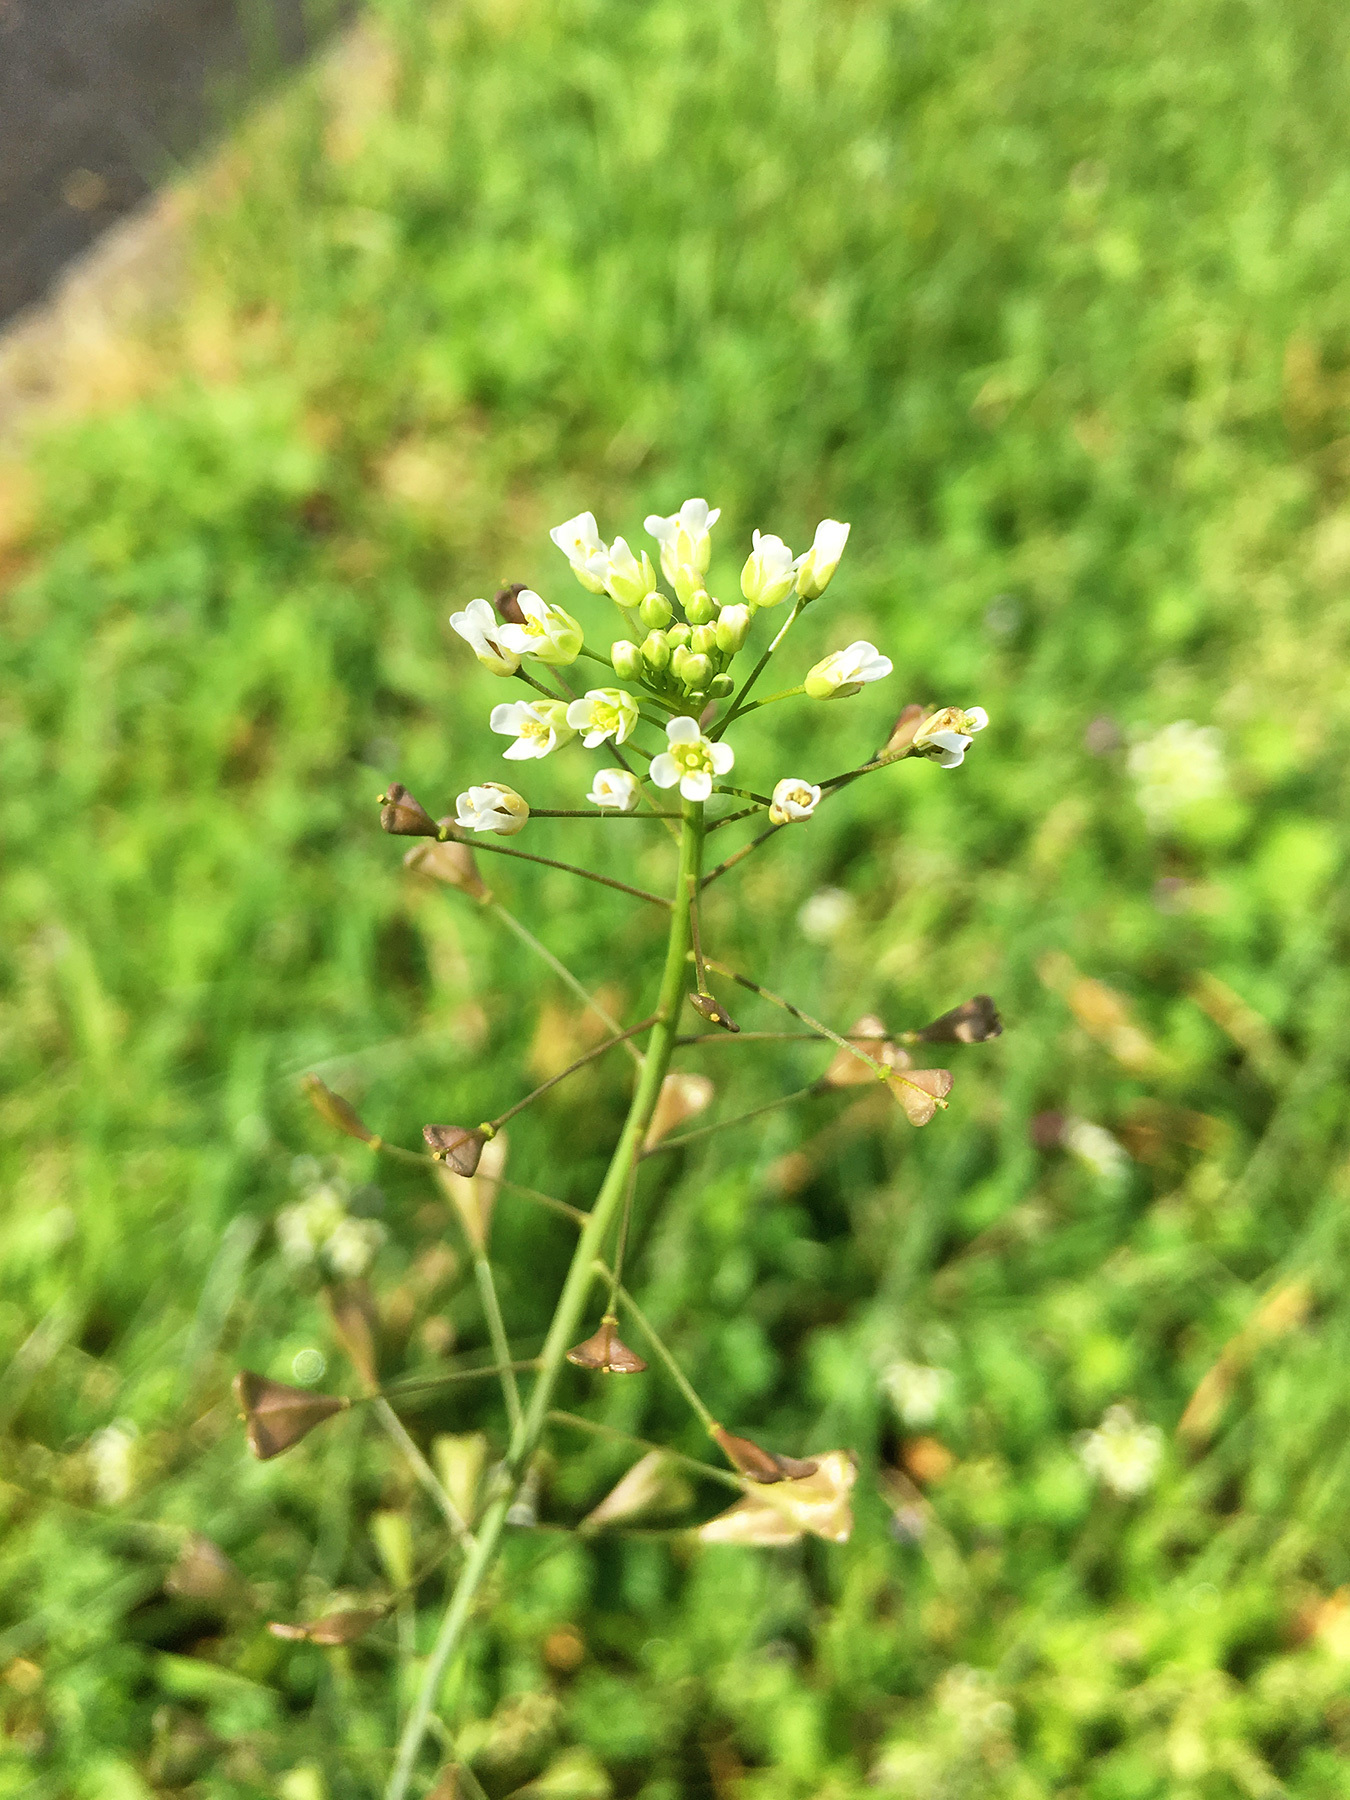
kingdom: Plantae
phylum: Tracheophyta
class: Magnoliopsida
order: Brassicales
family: Brassicaceae
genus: Capsella
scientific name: Capsella bursa-pastoris
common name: Shepherd's purse
